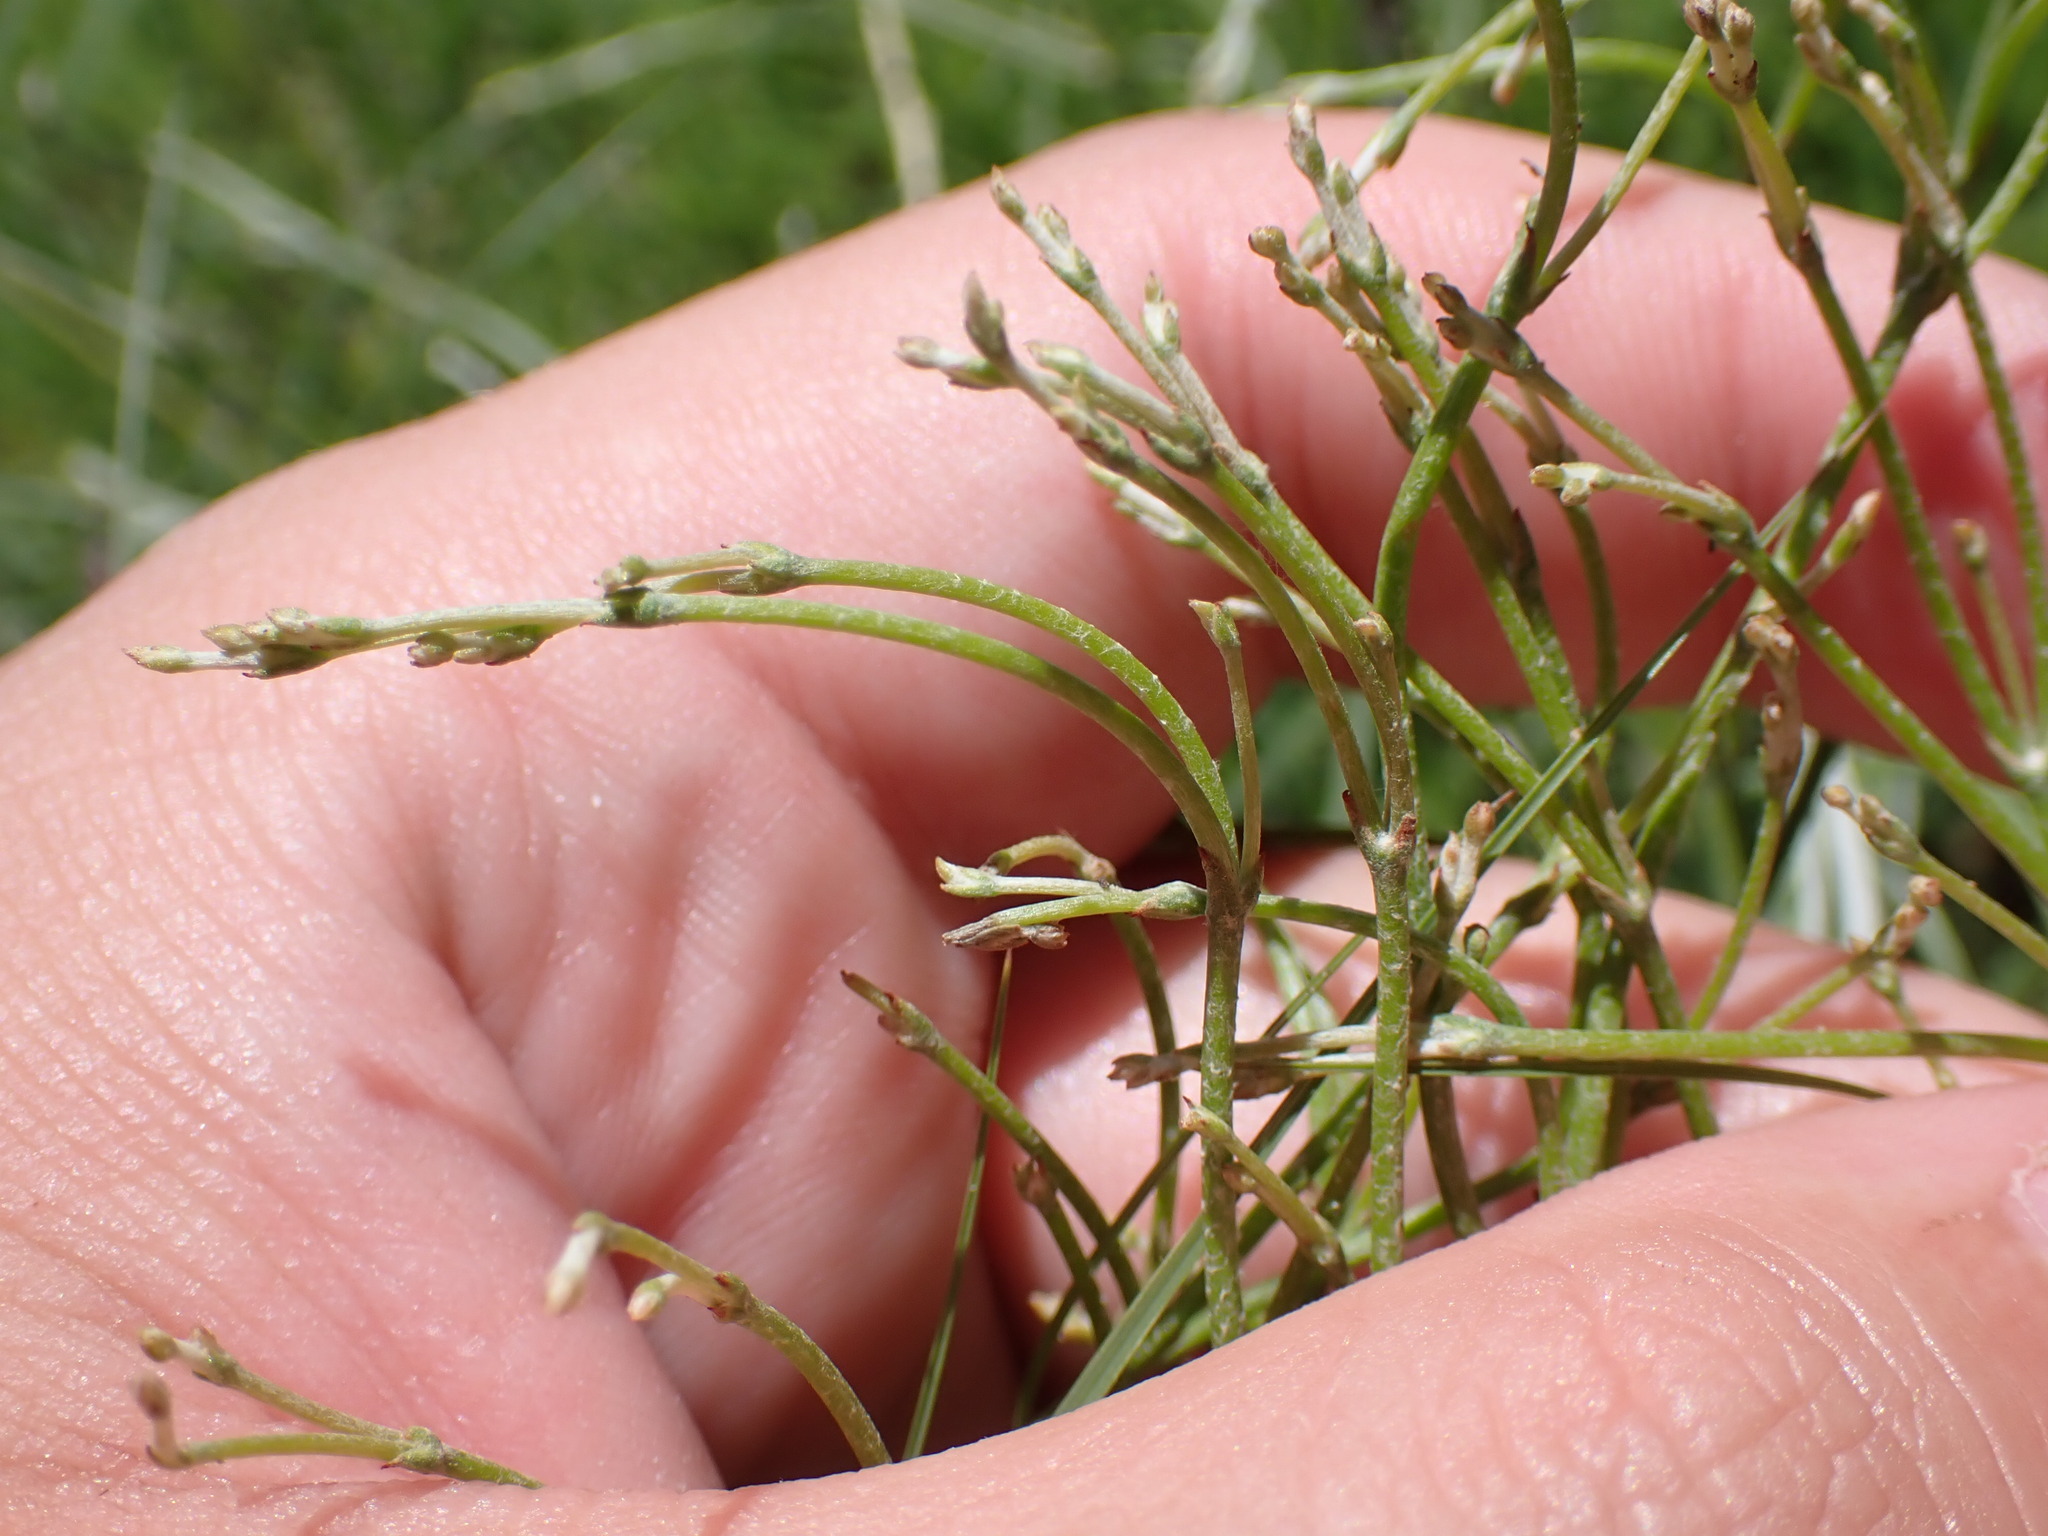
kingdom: Plantae
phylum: Tracheophyta
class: Magnoliopsida
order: Caryophyllales
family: Polygonaceae
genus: Eriogonum
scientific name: Eriogonum effusum
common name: Spreading wild buckwheat
